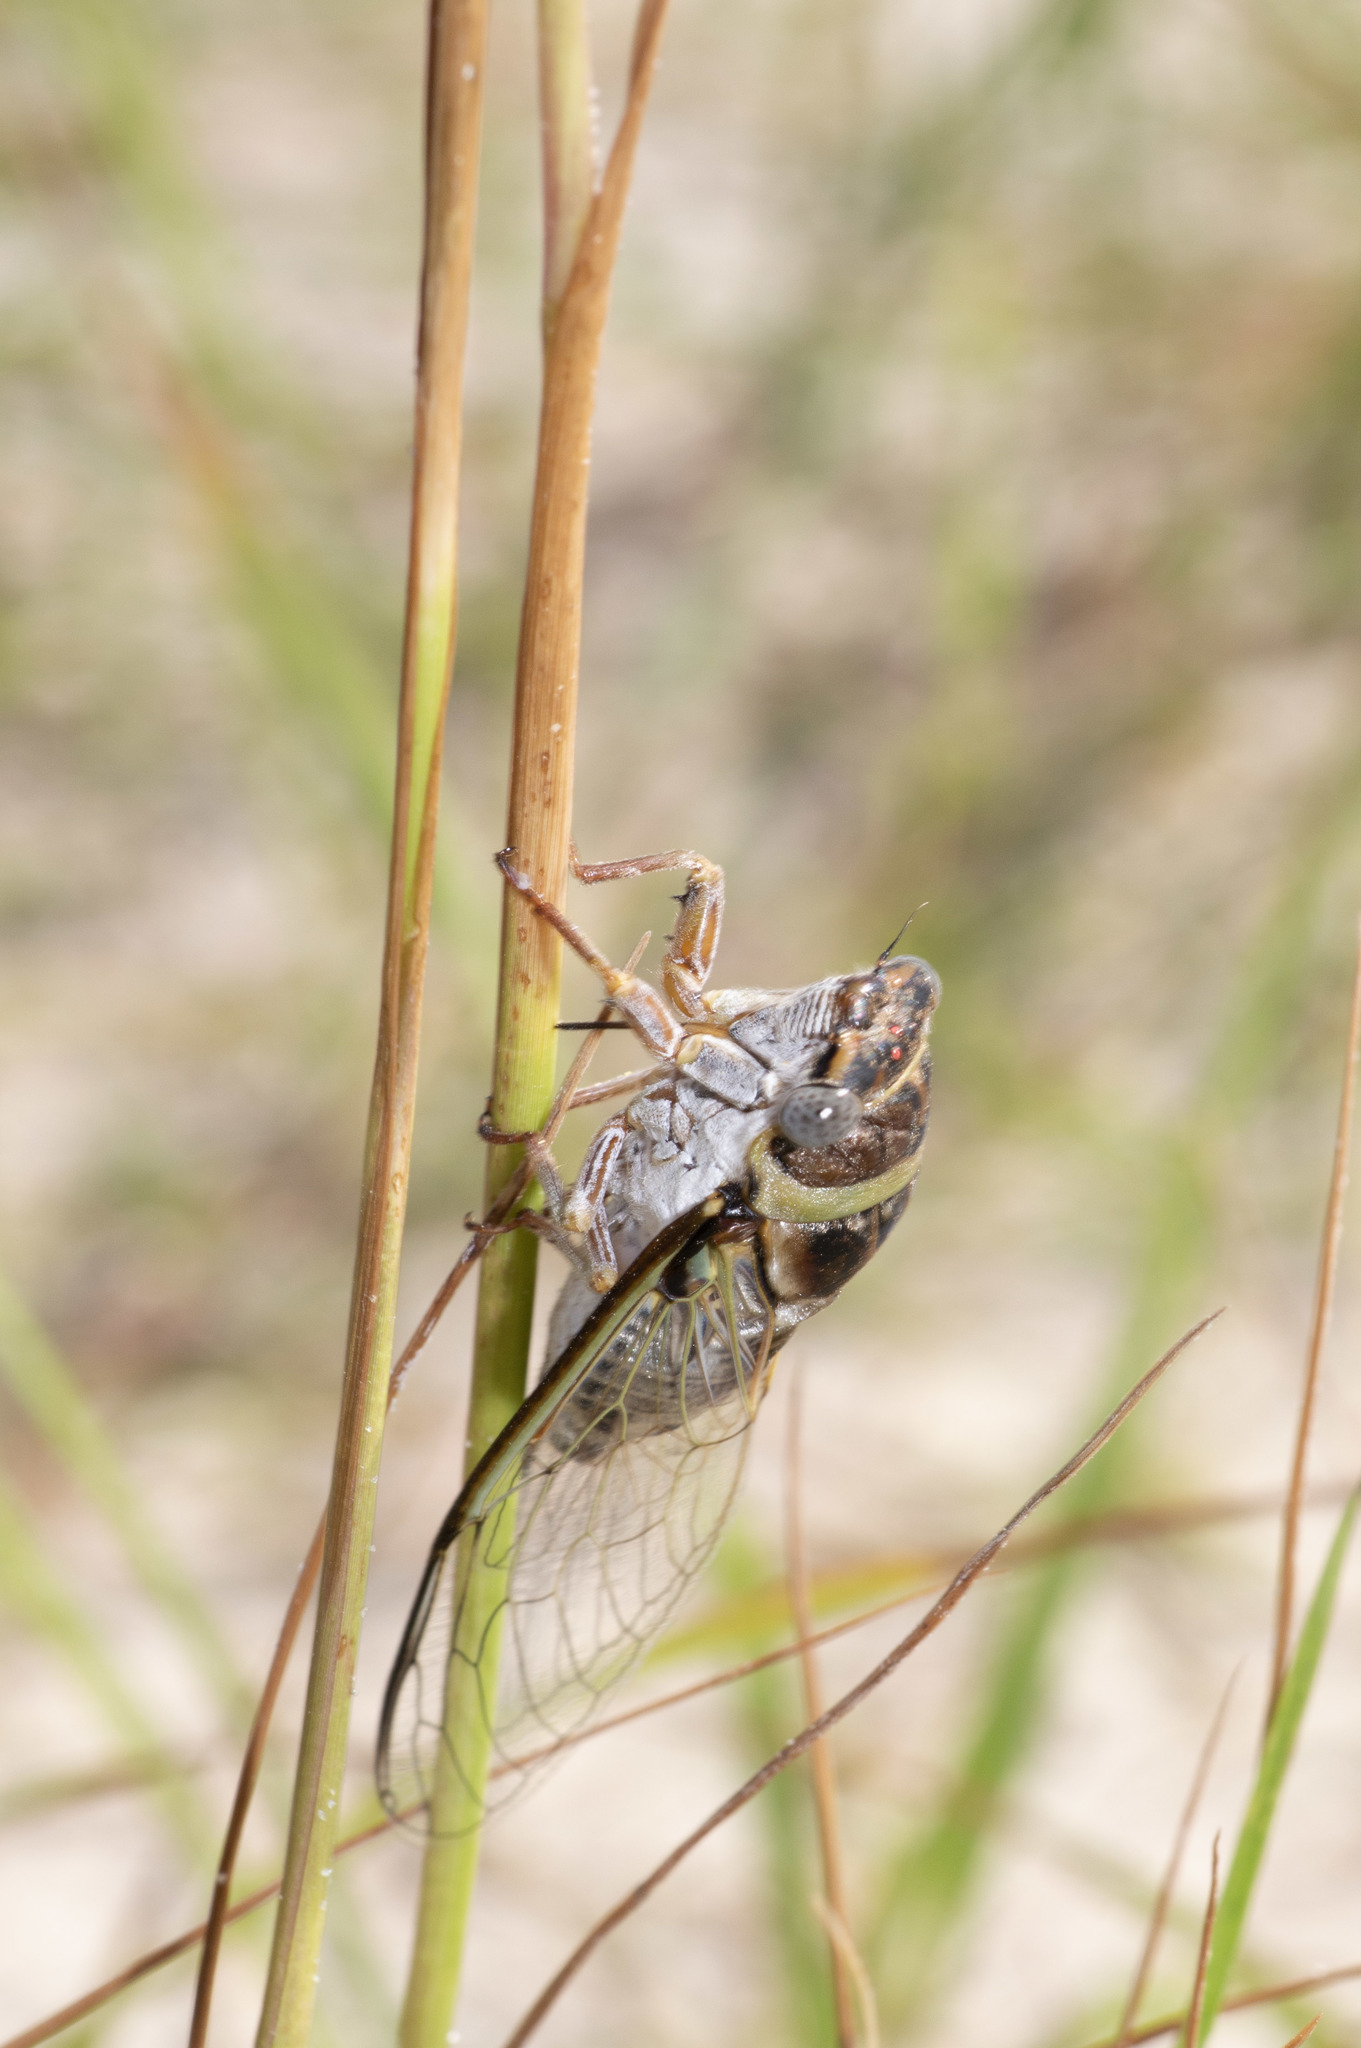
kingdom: Animalia
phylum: Arthropoda
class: Insecta
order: Hemiptera
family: Cicadidae
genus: Diceroprocta
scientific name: Diceroprocta viridifascia
